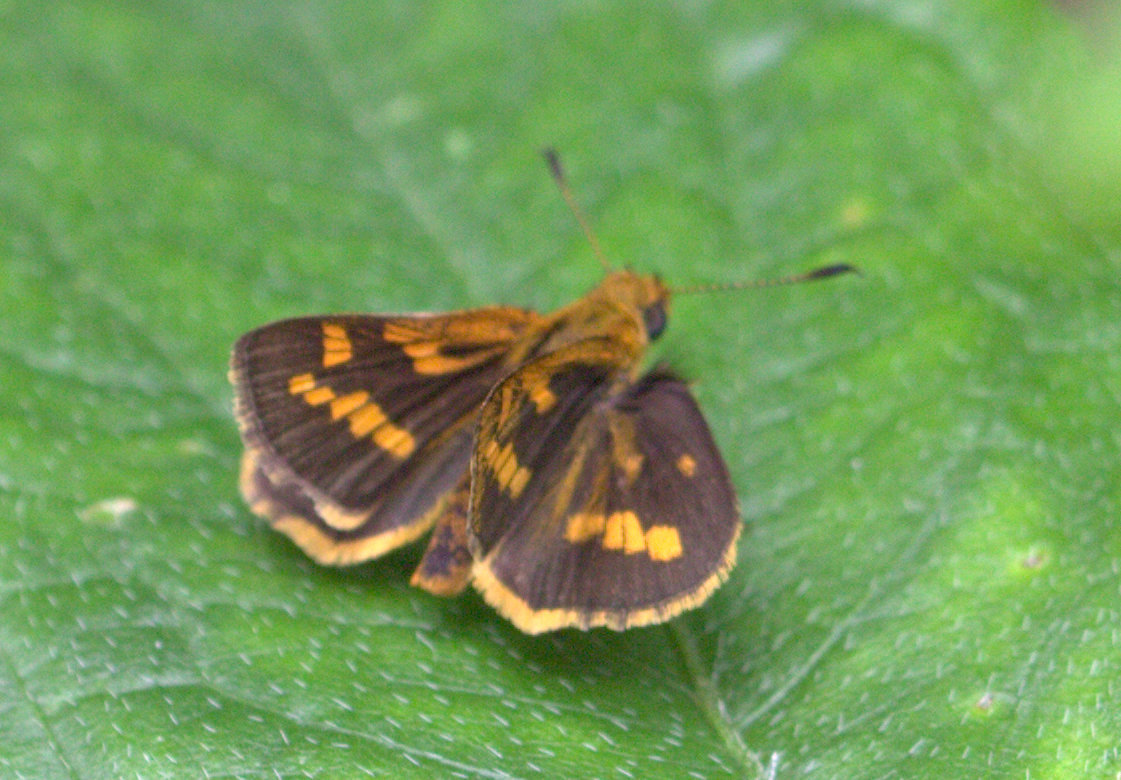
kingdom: Animalia
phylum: Arthropoda
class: Insecta
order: Lepidoptera
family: Hesperiidae
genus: Potanthus
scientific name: Potanthus palnia
